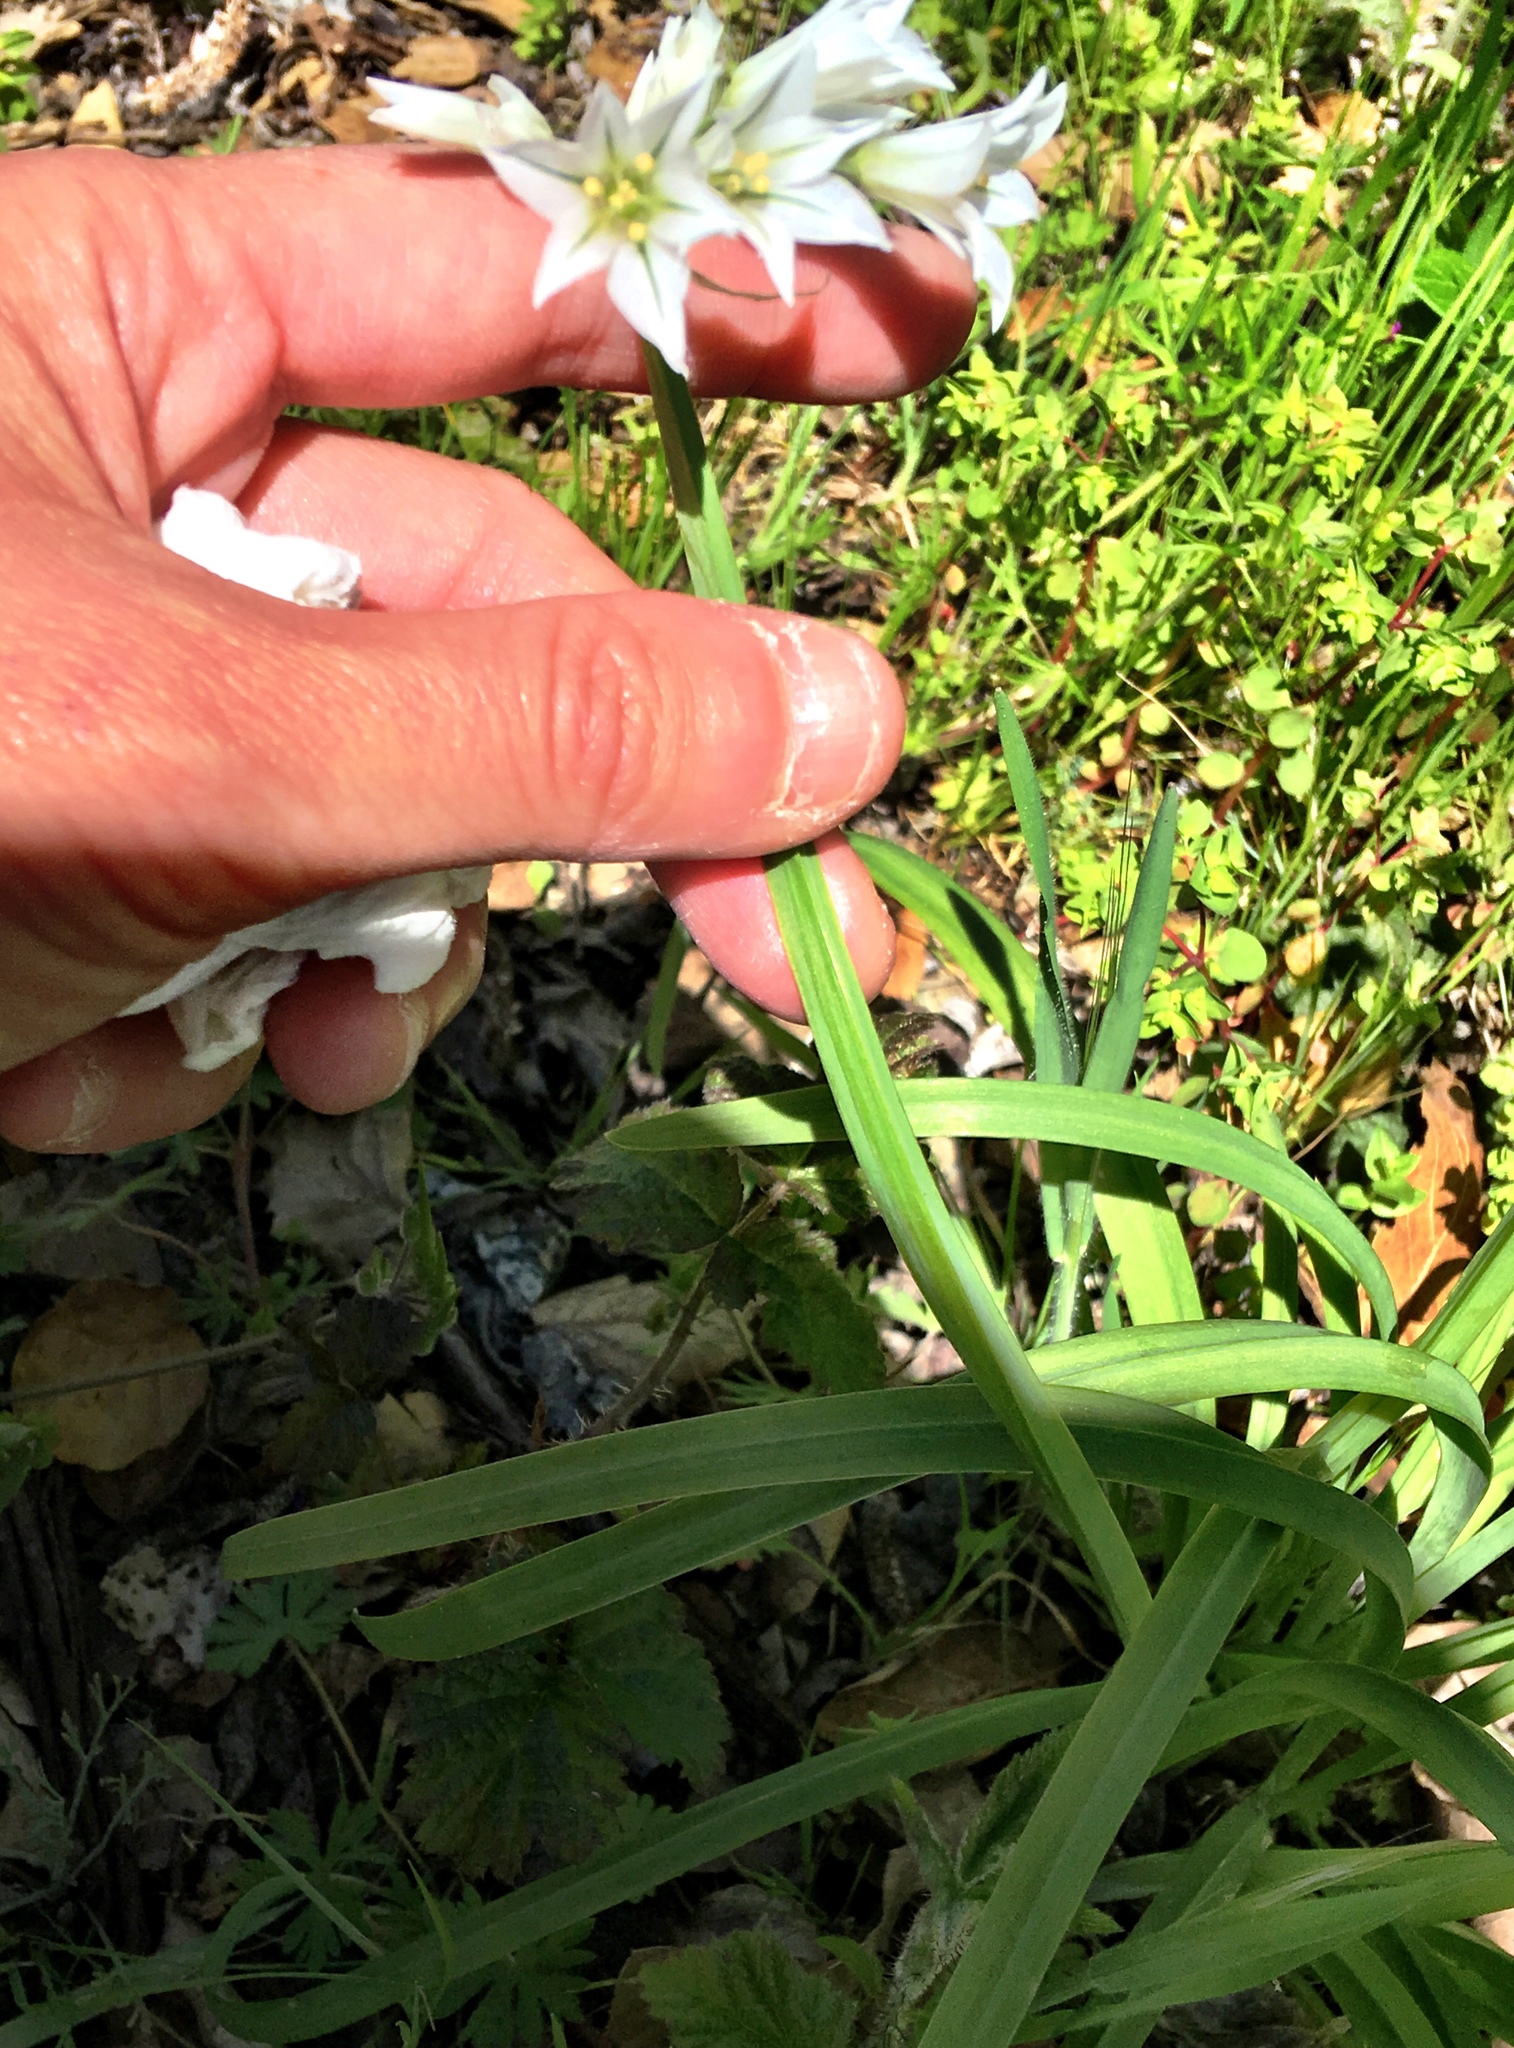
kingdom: Plantae
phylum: Tracheophyta
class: Liliopsida
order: Asparagales
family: Amaryllidaceae
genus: Allium
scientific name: Allium triquetrum
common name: Three-cornered garlic
